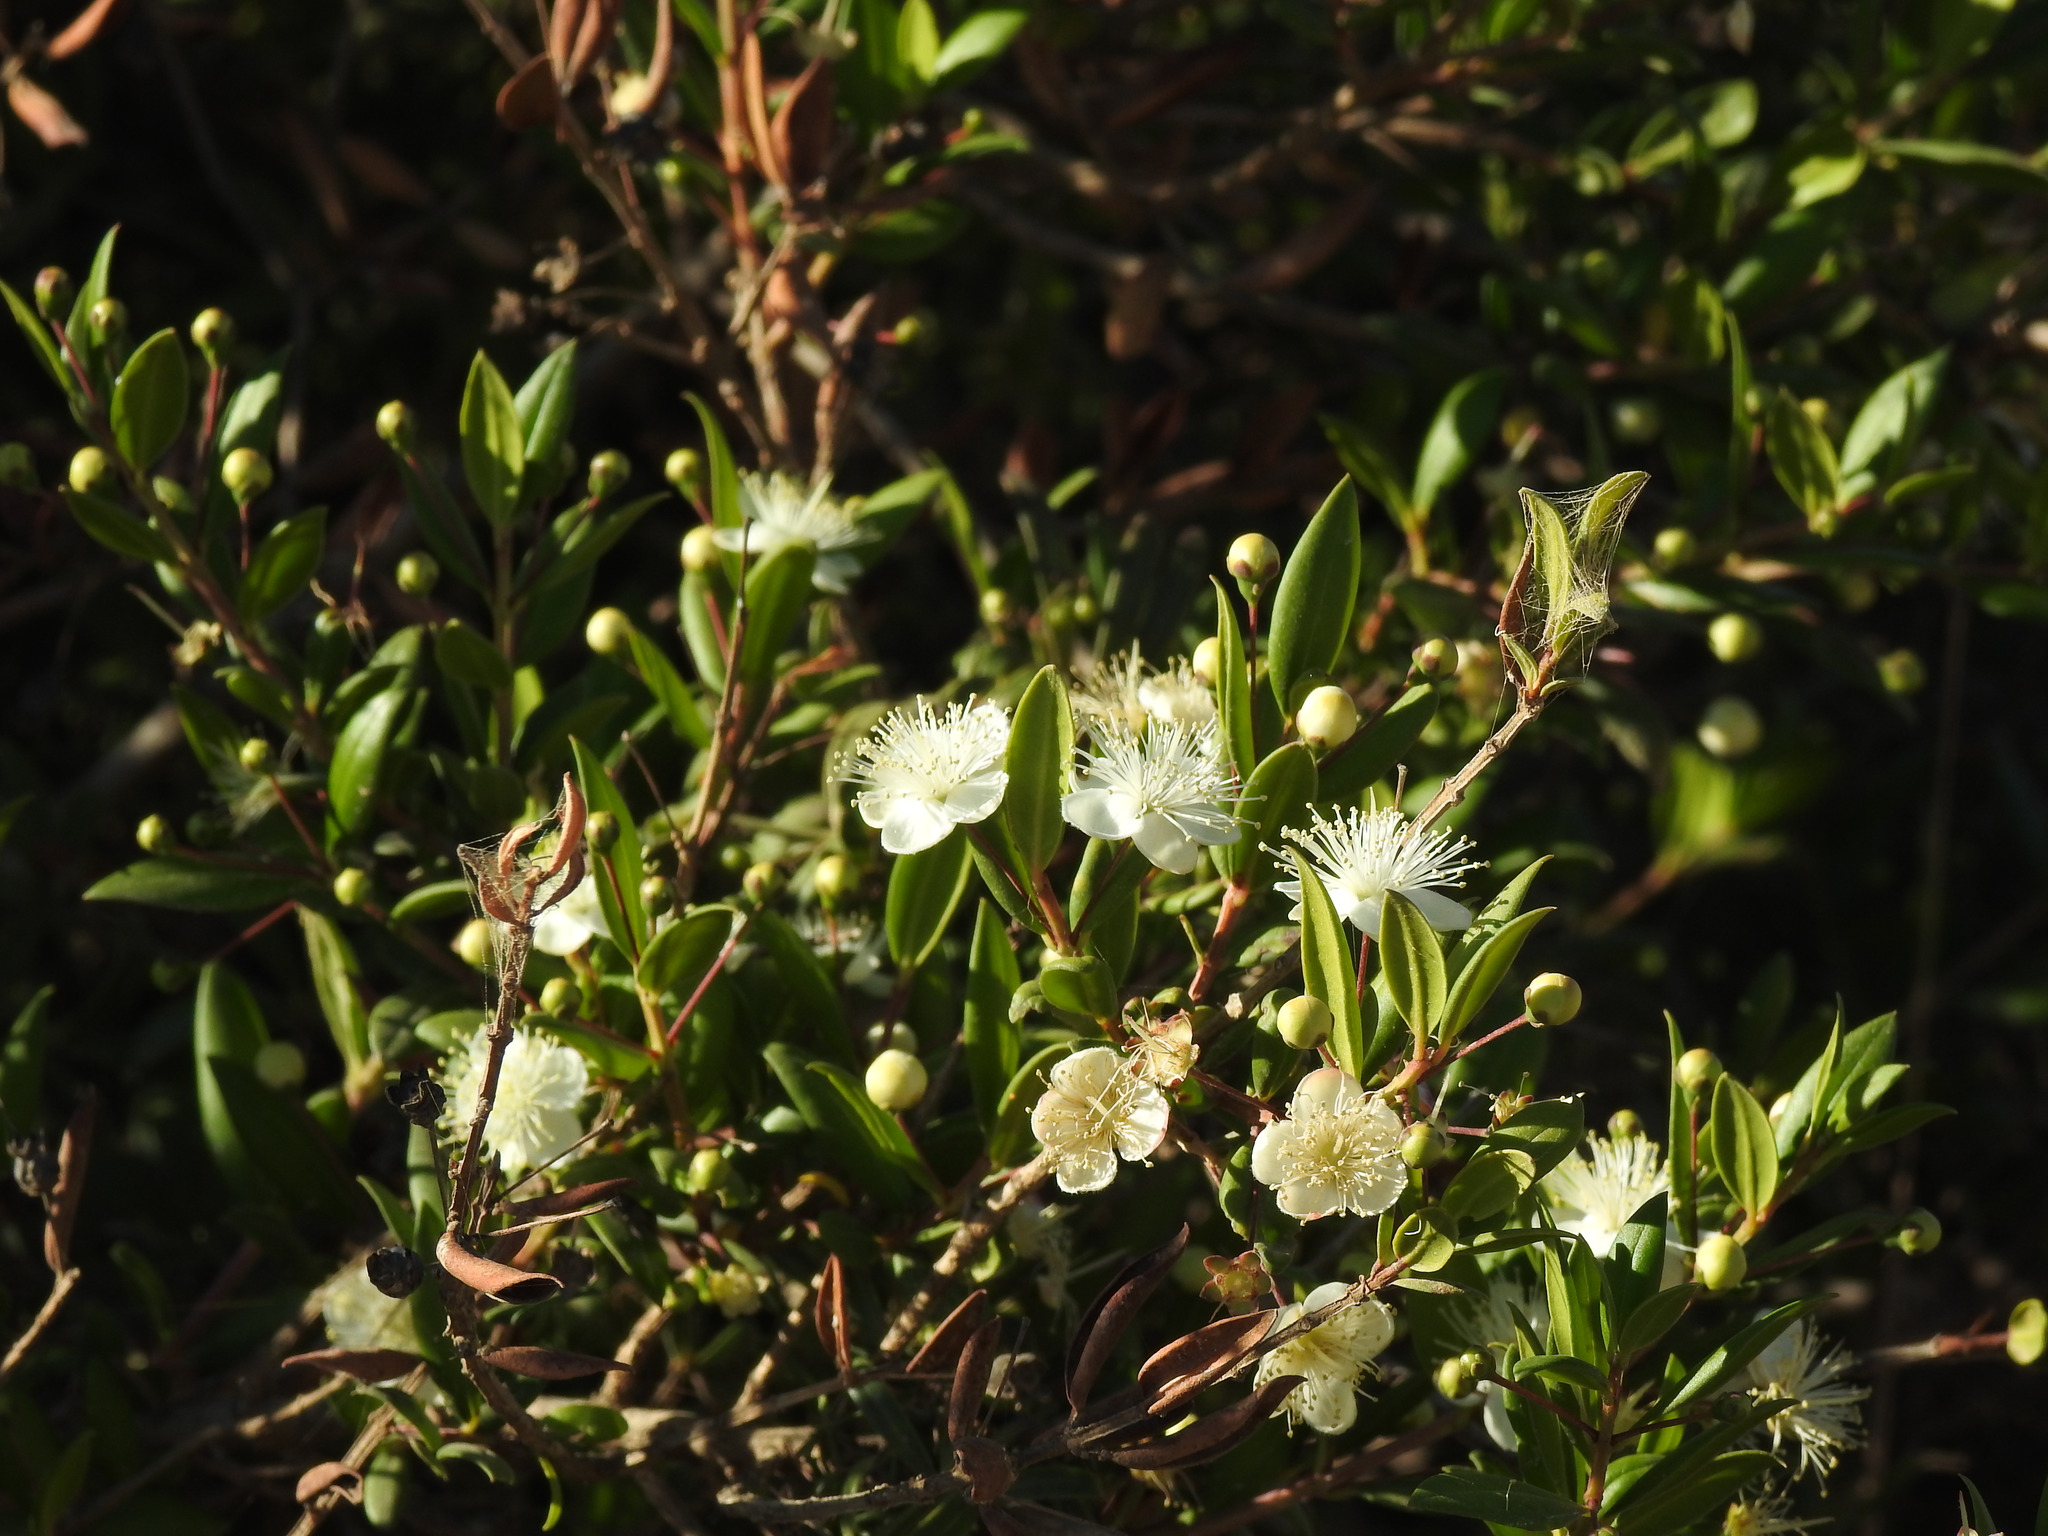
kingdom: Plantae
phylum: Tracheophyta
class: Magnoliopsida
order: Myrtales
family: Myrtaceae
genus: Myrtus
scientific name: Myrtus communis
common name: Myrtle
